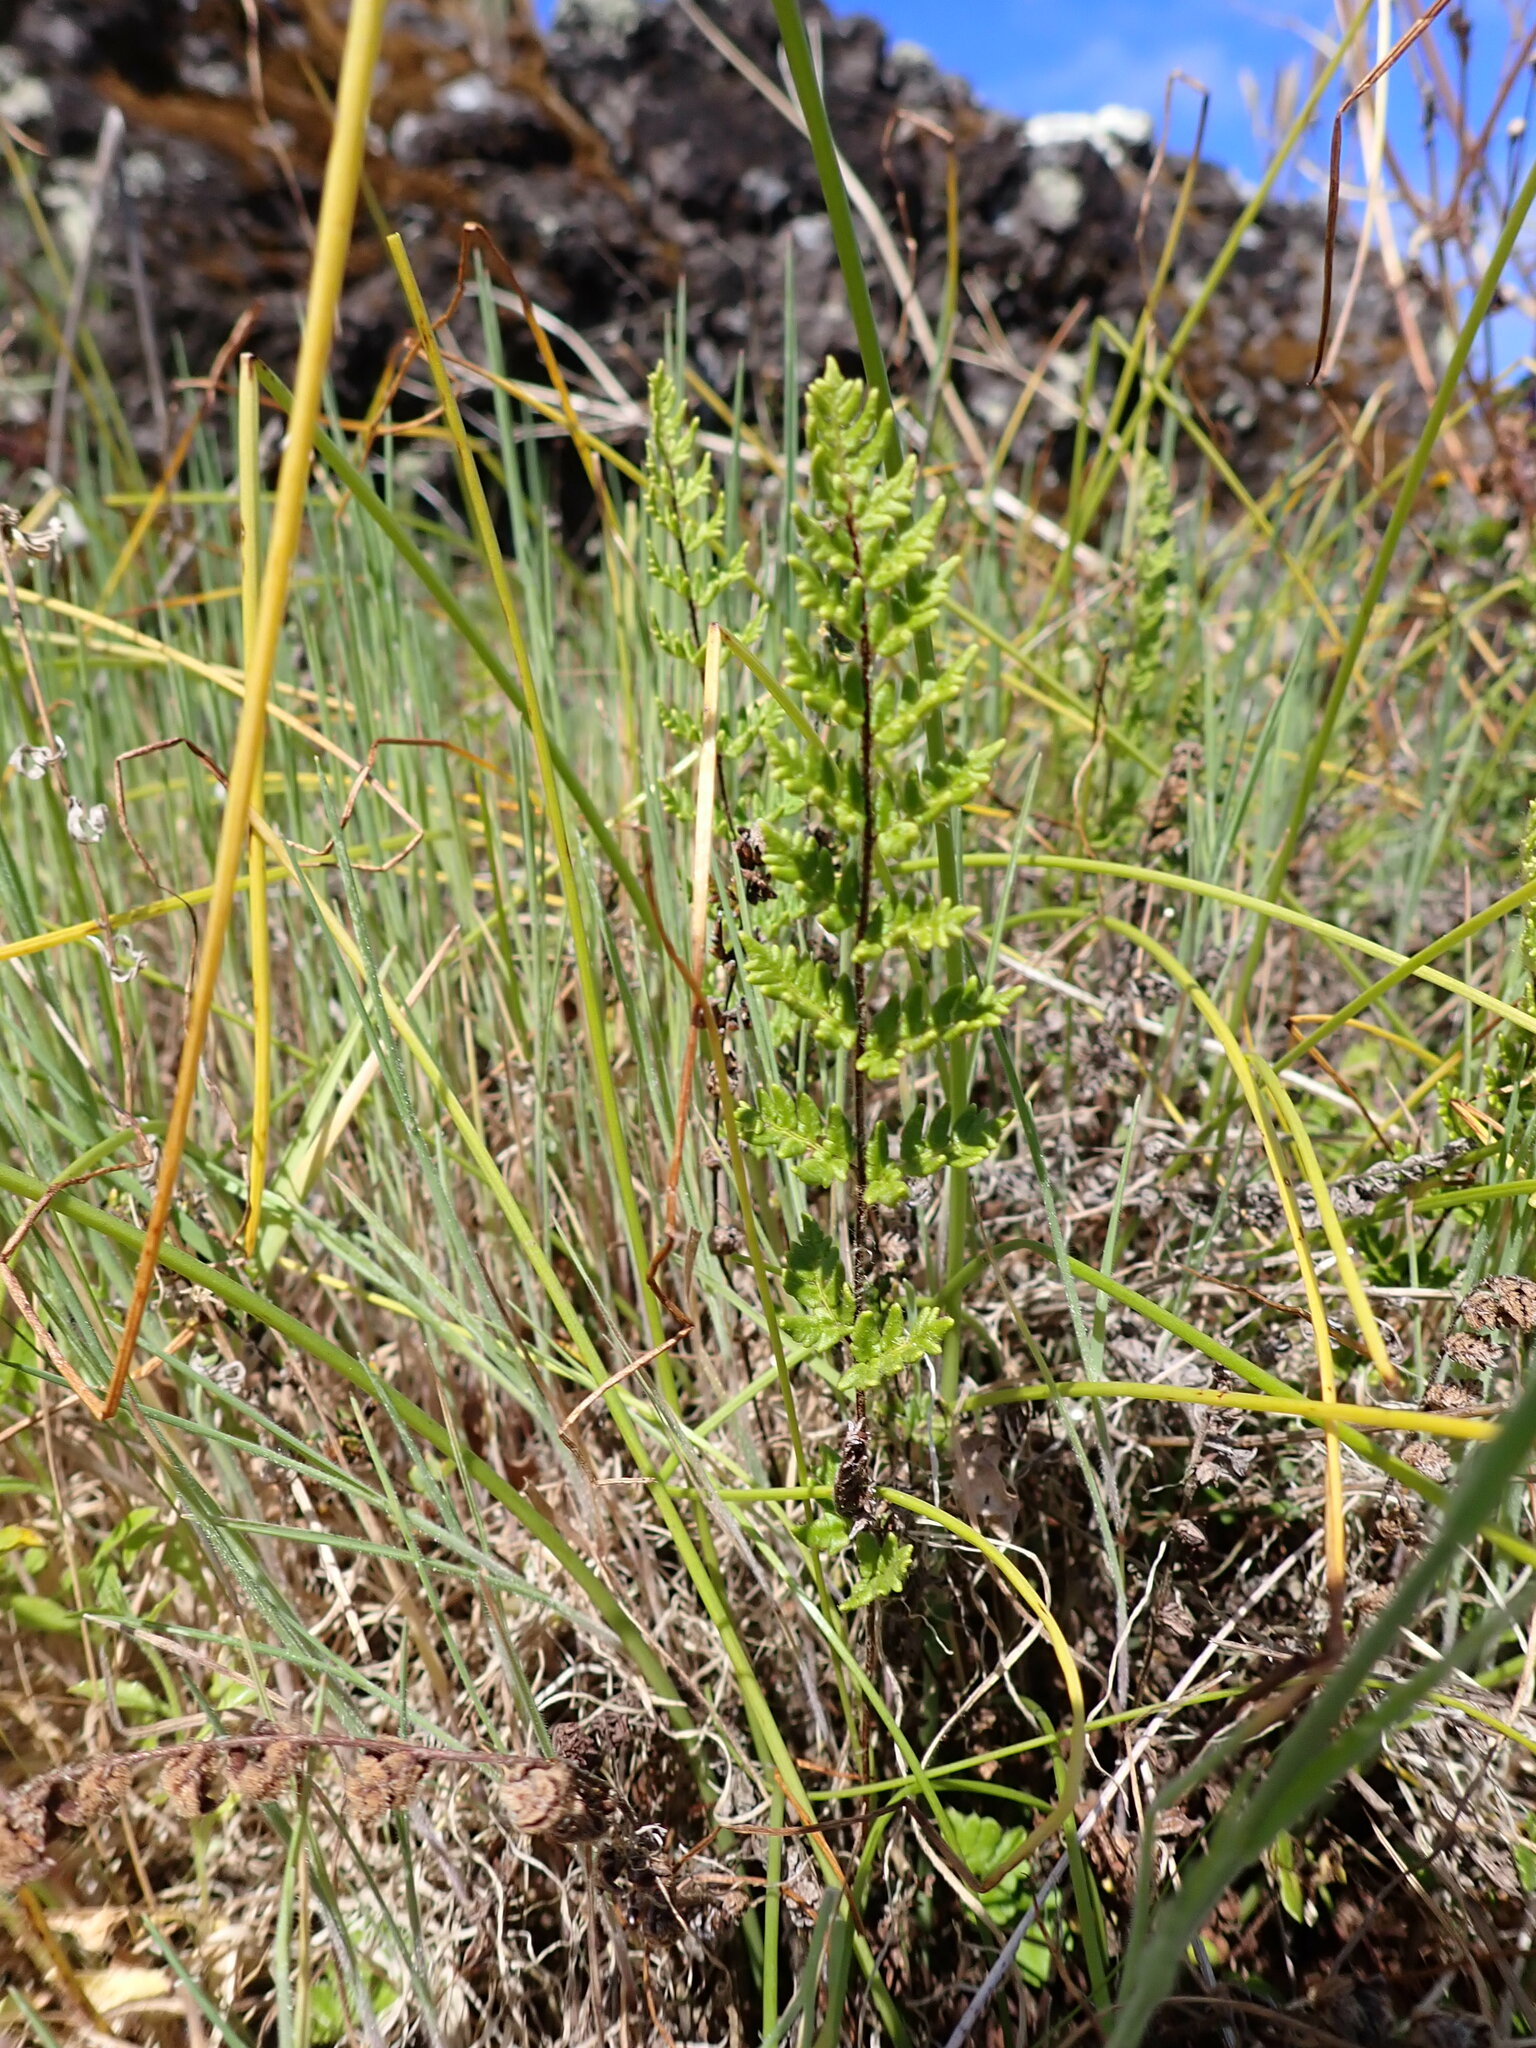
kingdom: Plantae
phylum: Tracheophyta
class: Polypodiopsida
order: Polypodiales
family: Pteridaceae
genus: Cheilanthes
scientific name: Cheilanthes distans
